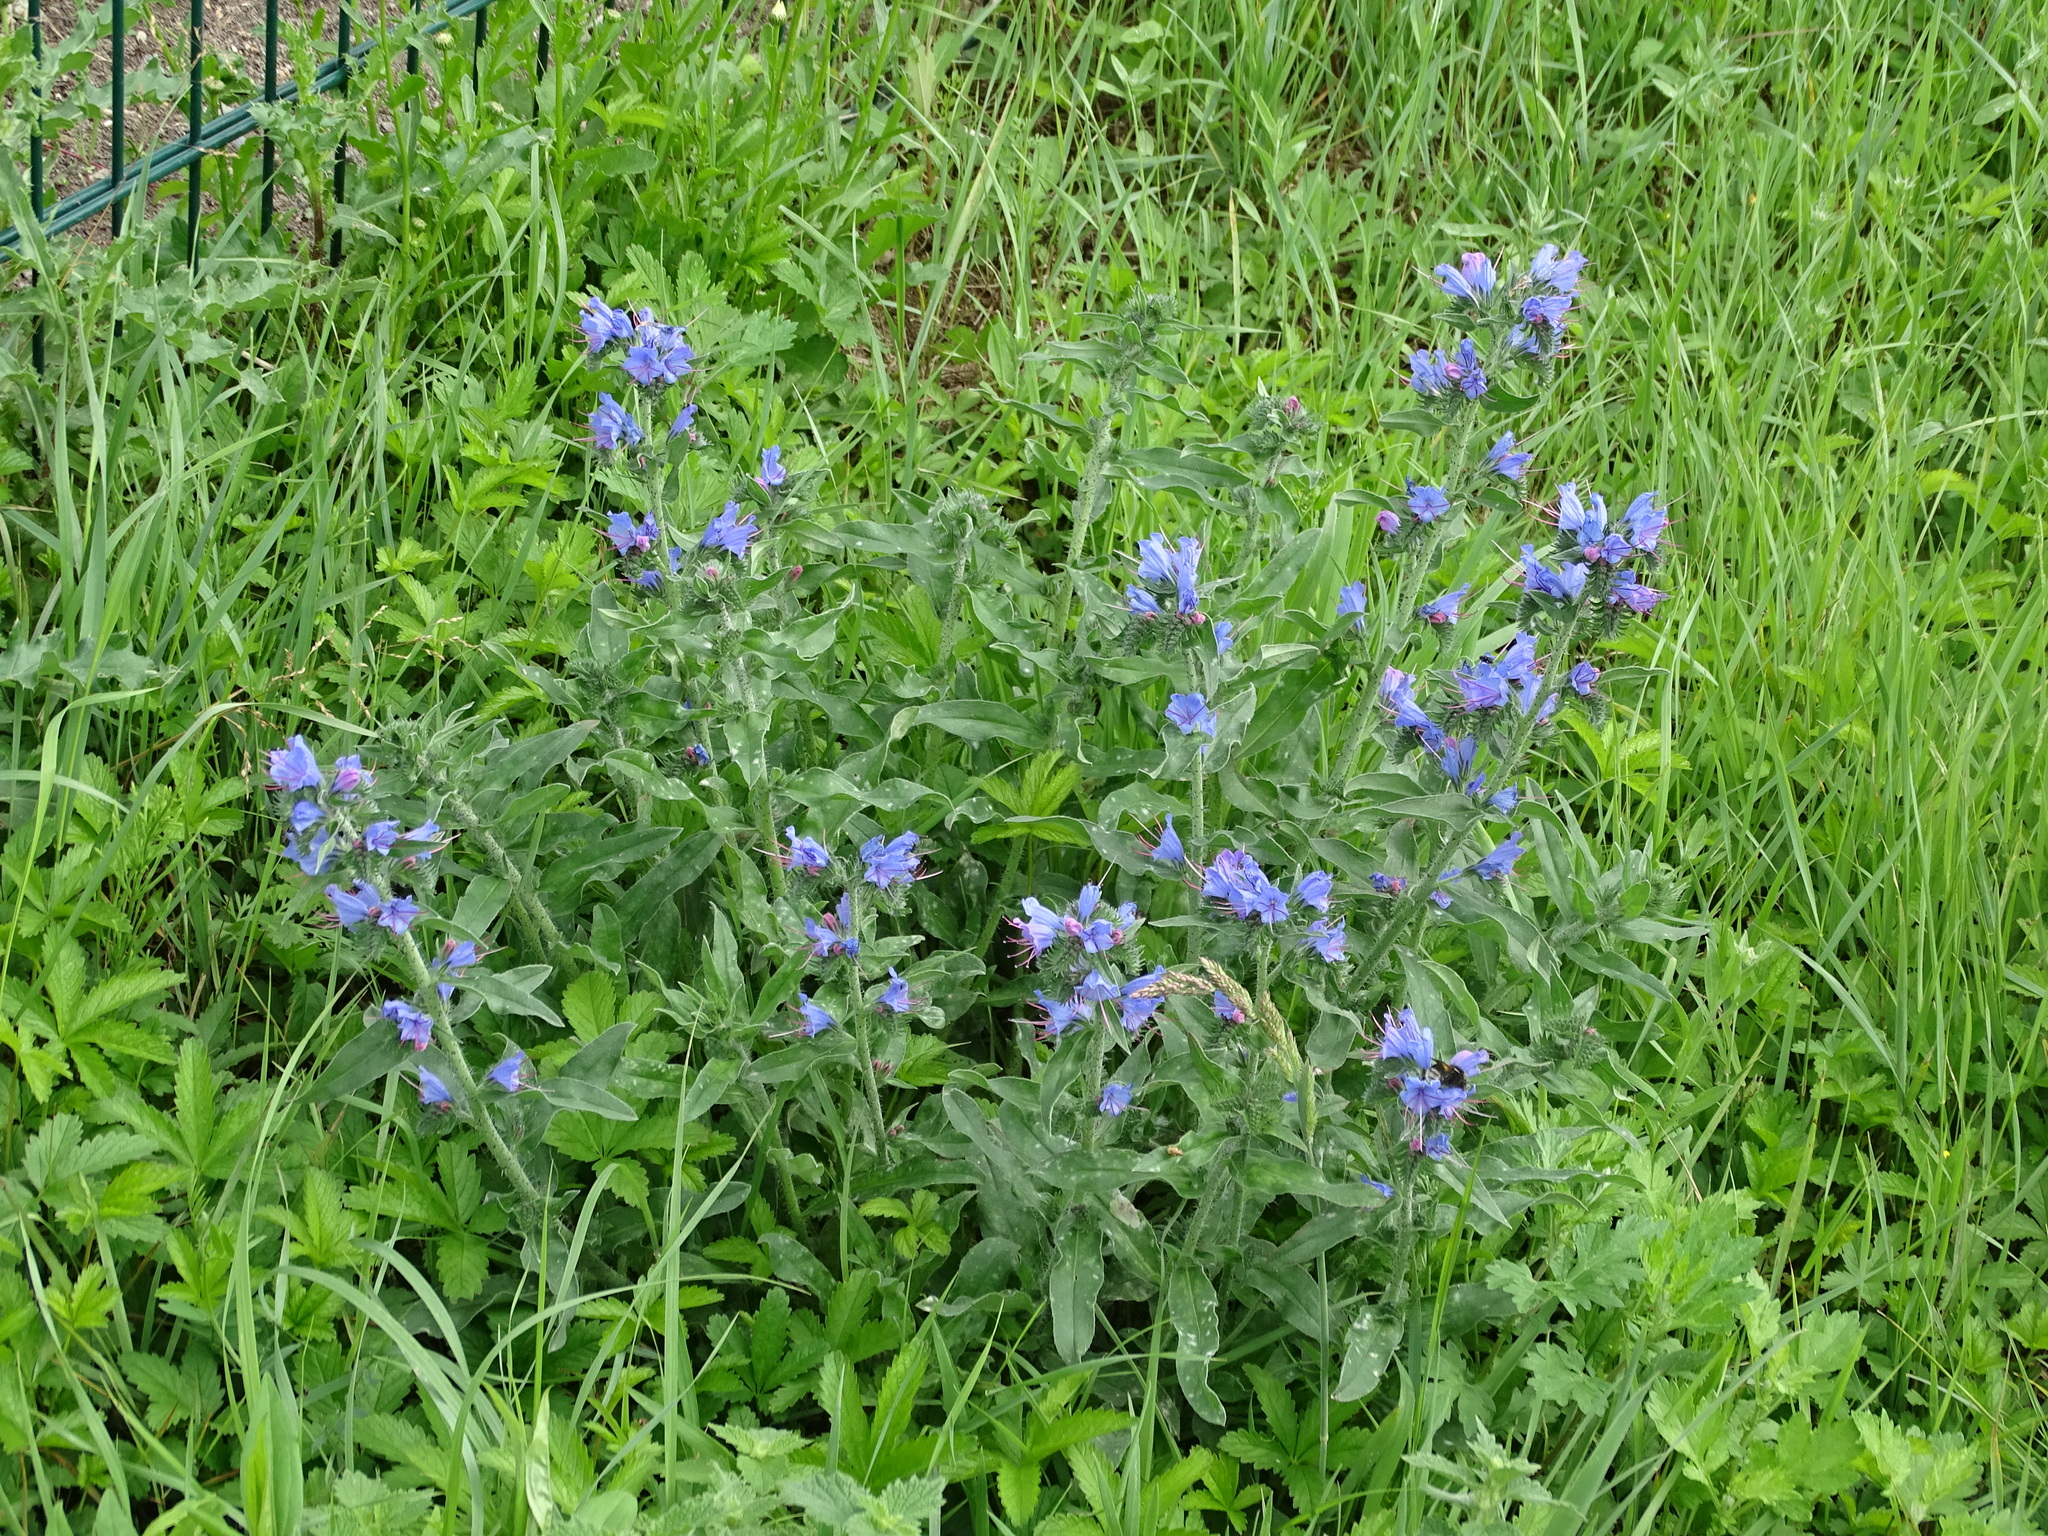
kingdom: Plantae
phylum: Tracheophyta
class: Magnoliopsida
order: Boraginales
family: Boraginaceae
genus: Echium
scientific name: Echium vulgare
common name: Common viper's bugloss
